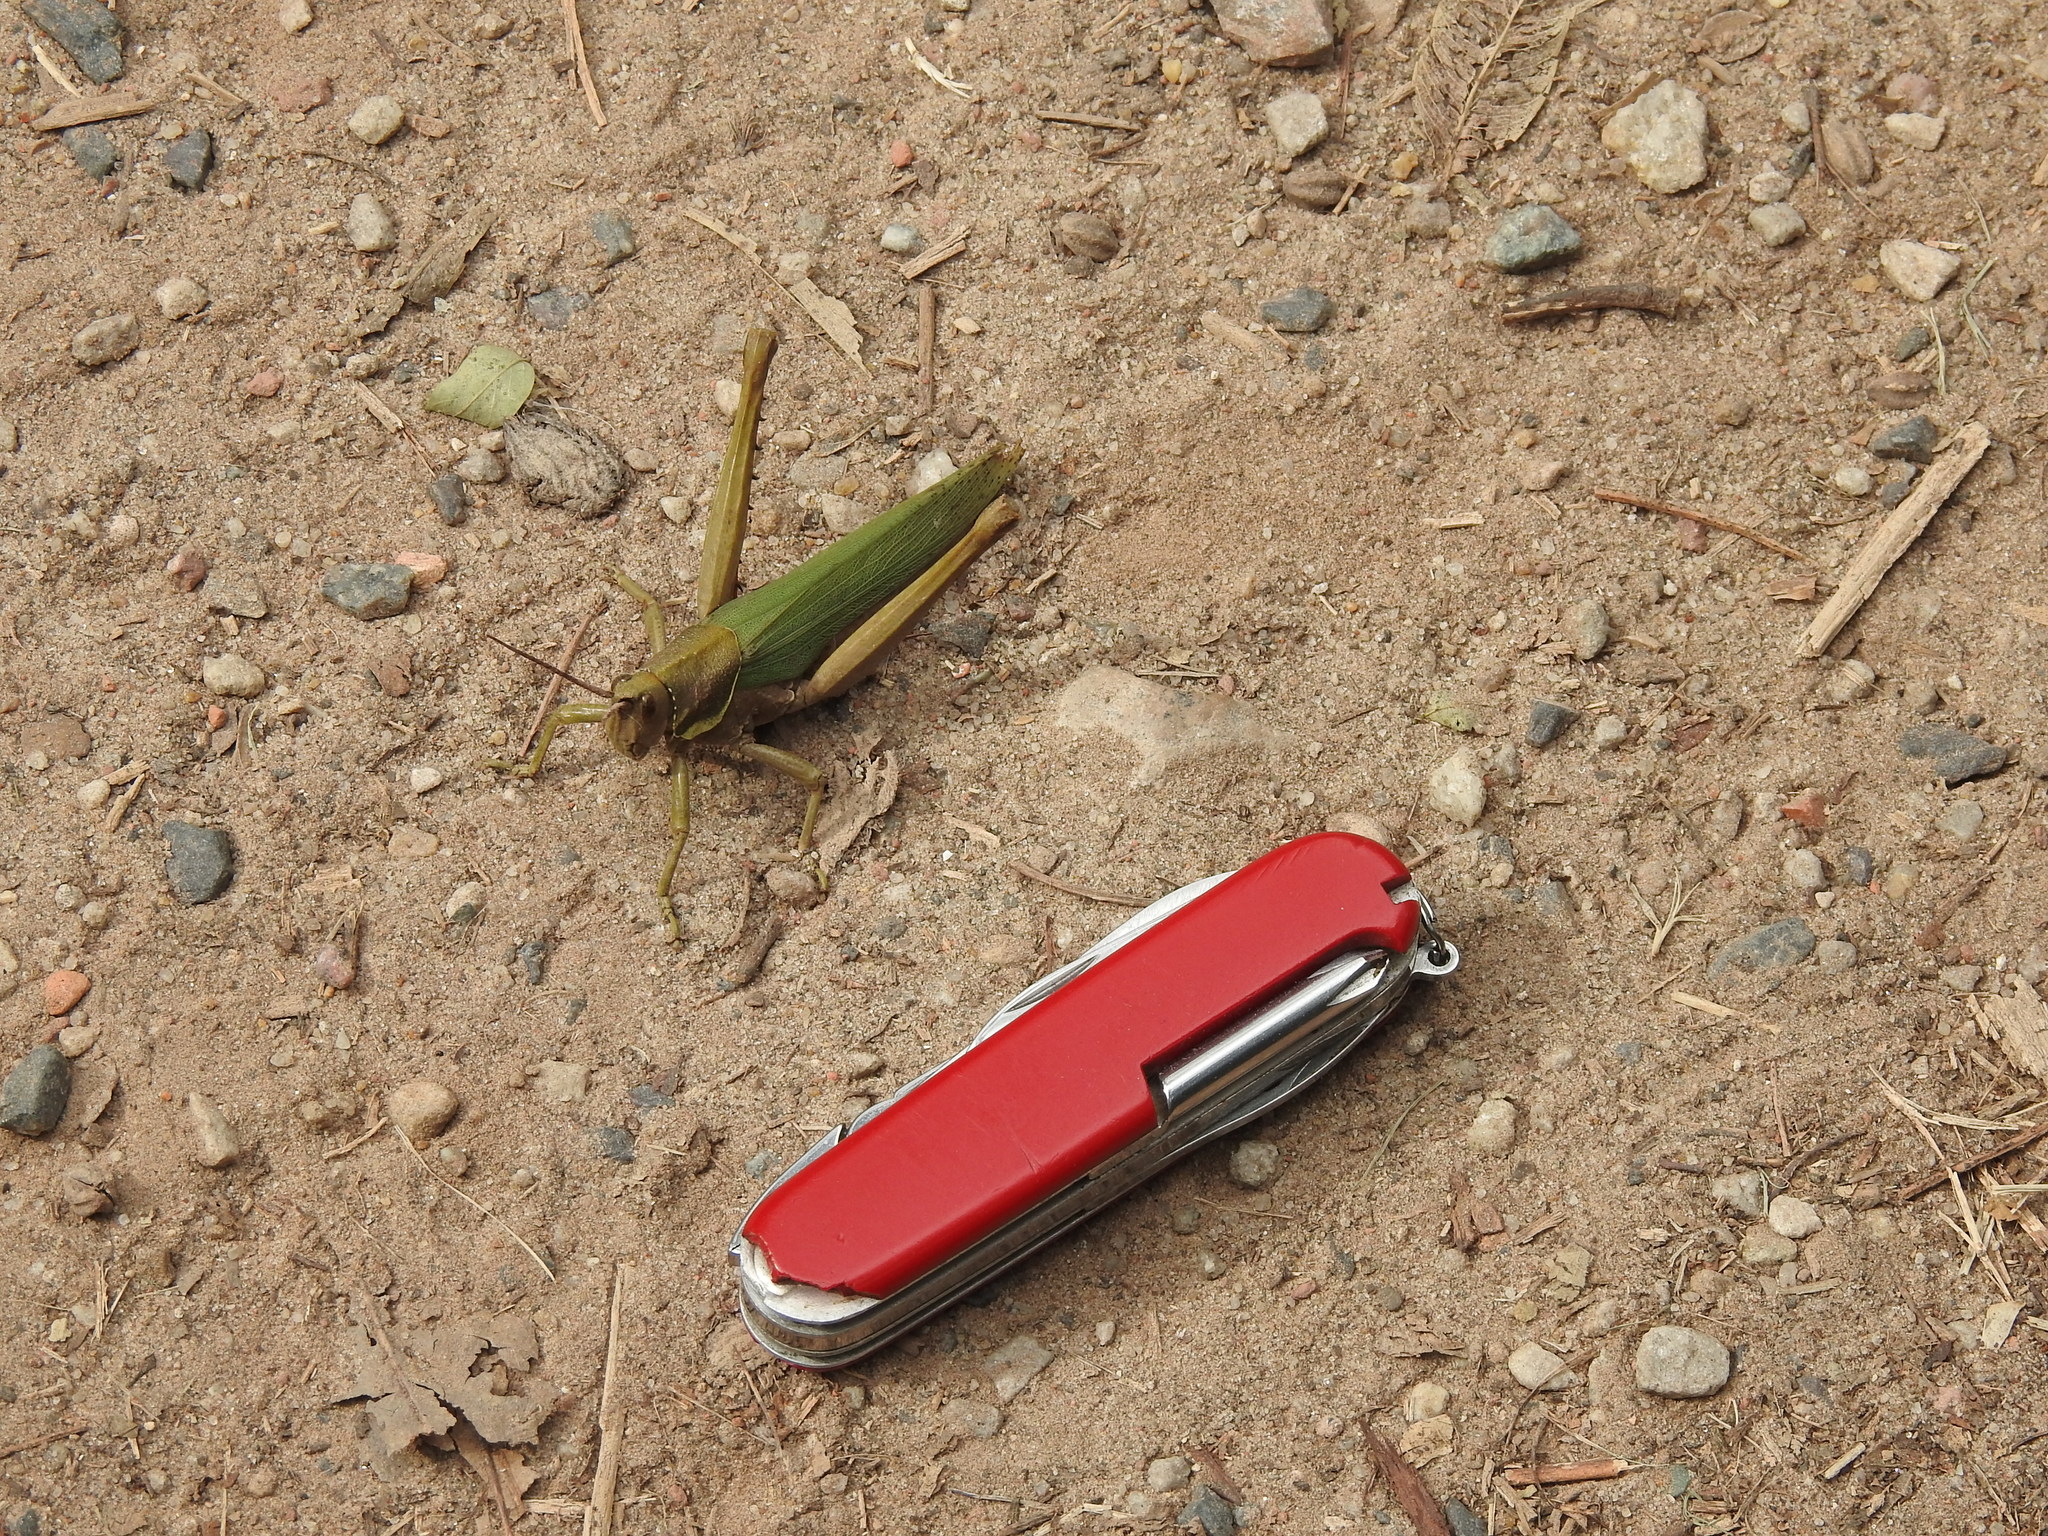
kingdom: Animalia
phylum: Arthropoda
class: Insecta
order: Orthoptera
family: Romaleidae
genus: Coryacris
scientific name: Coryacris angustipennis
